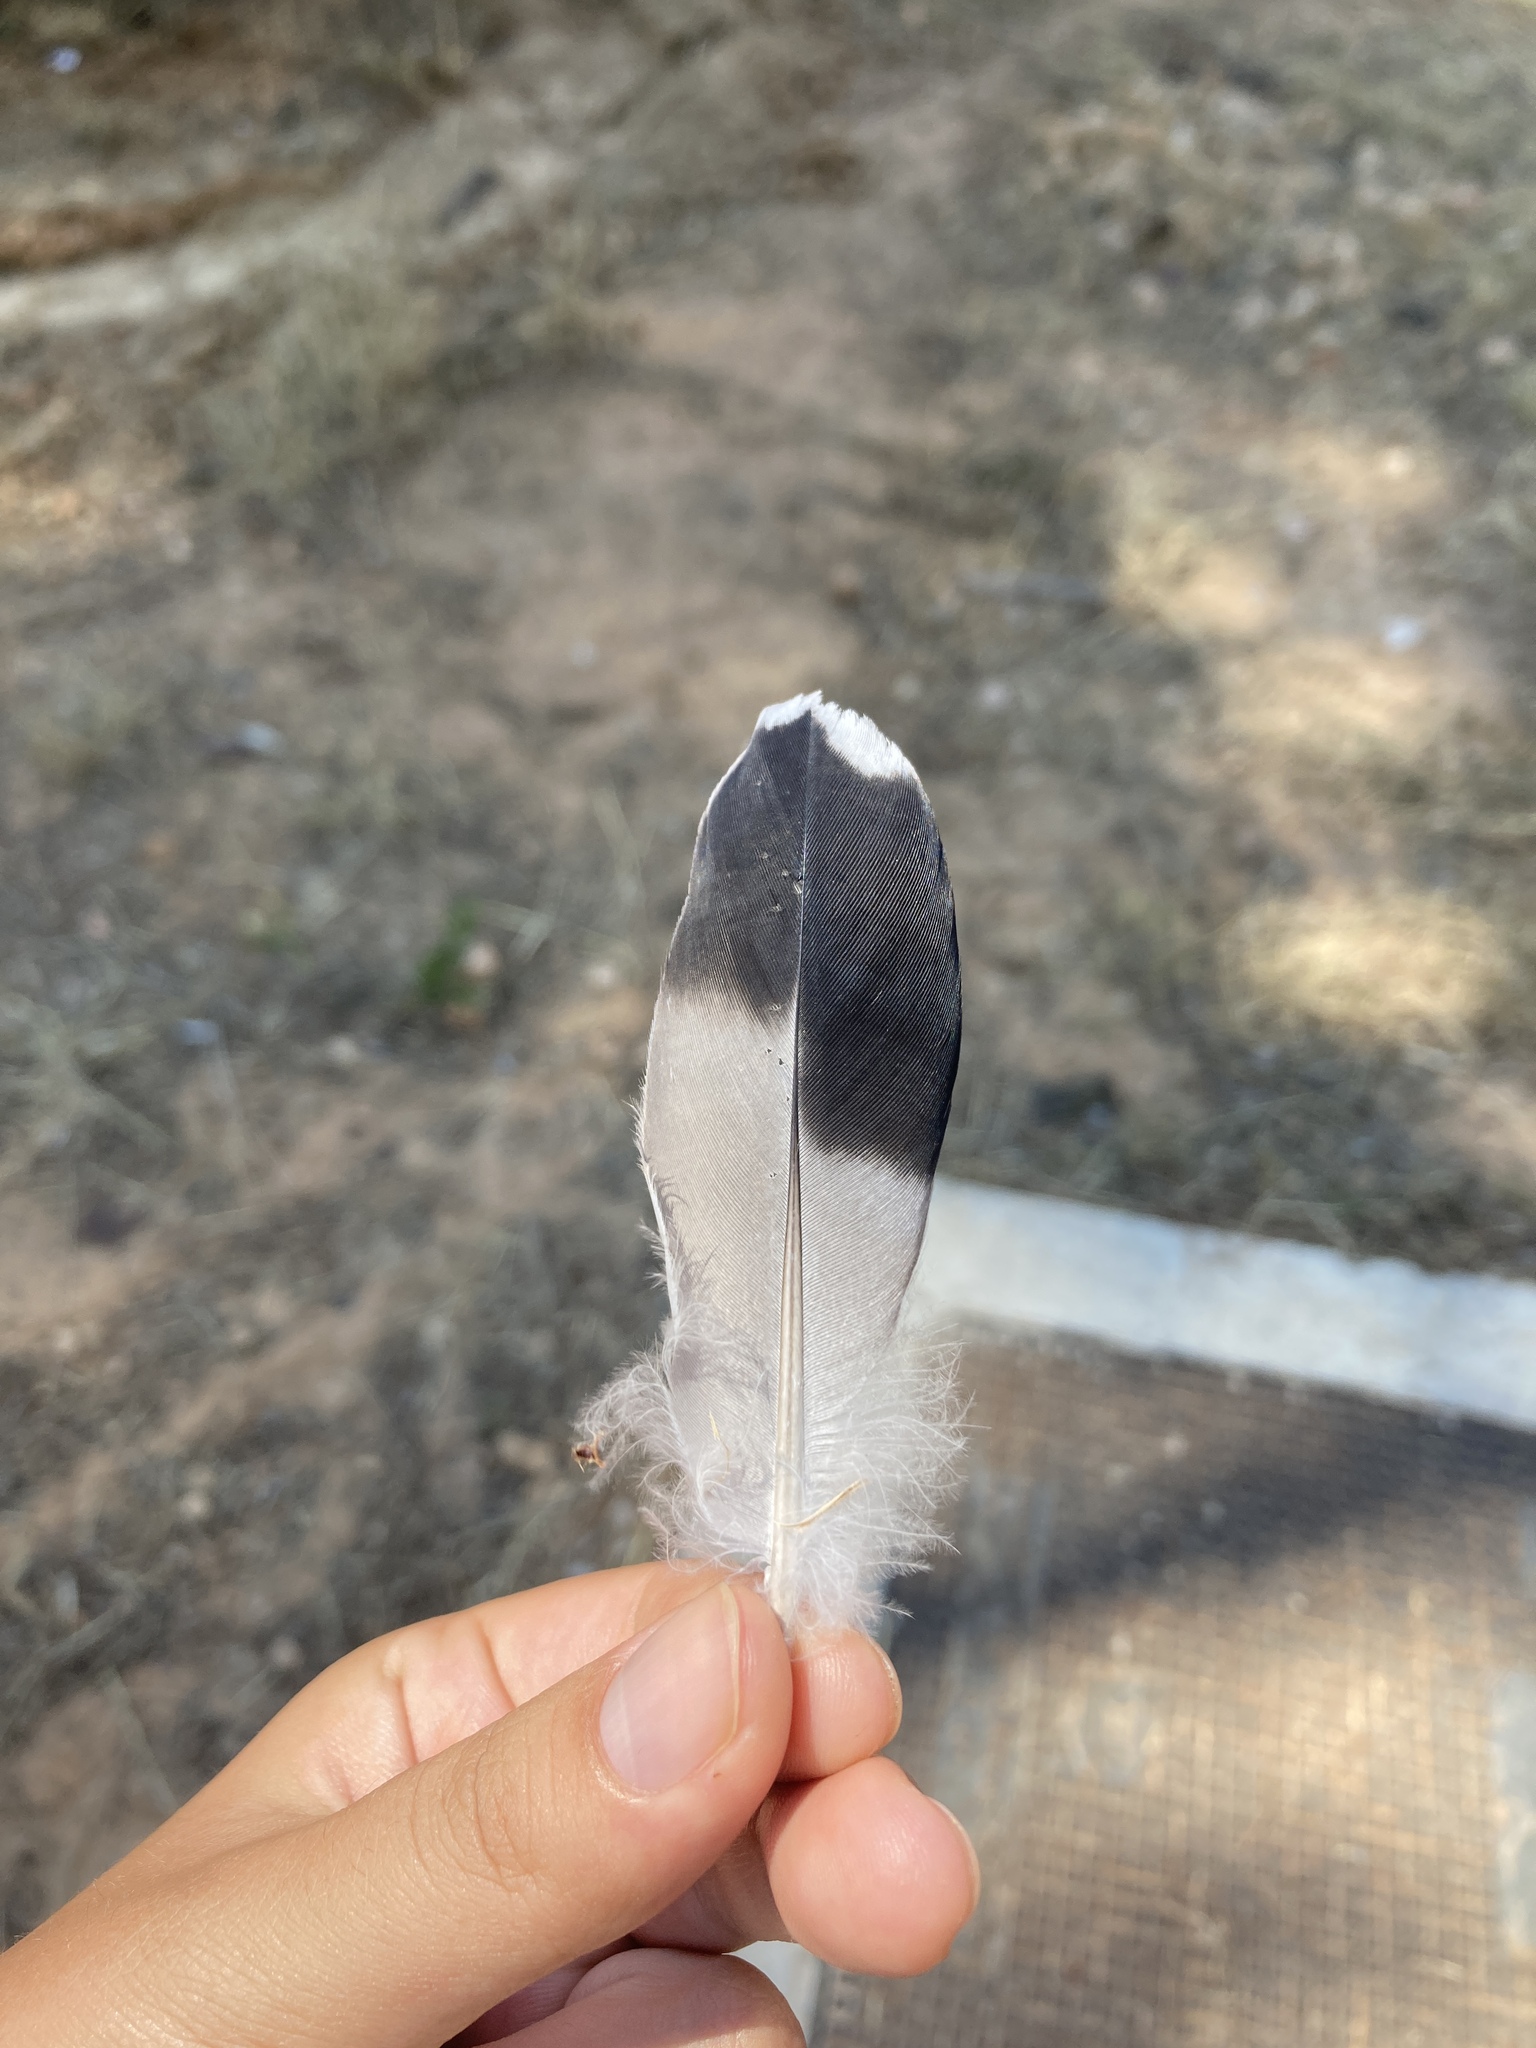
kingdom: Animalia
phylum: Chordata
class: Aves
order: Columbiformes
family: Columbidae
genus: Columba
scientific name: Columba livia
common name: Rock pigeon
